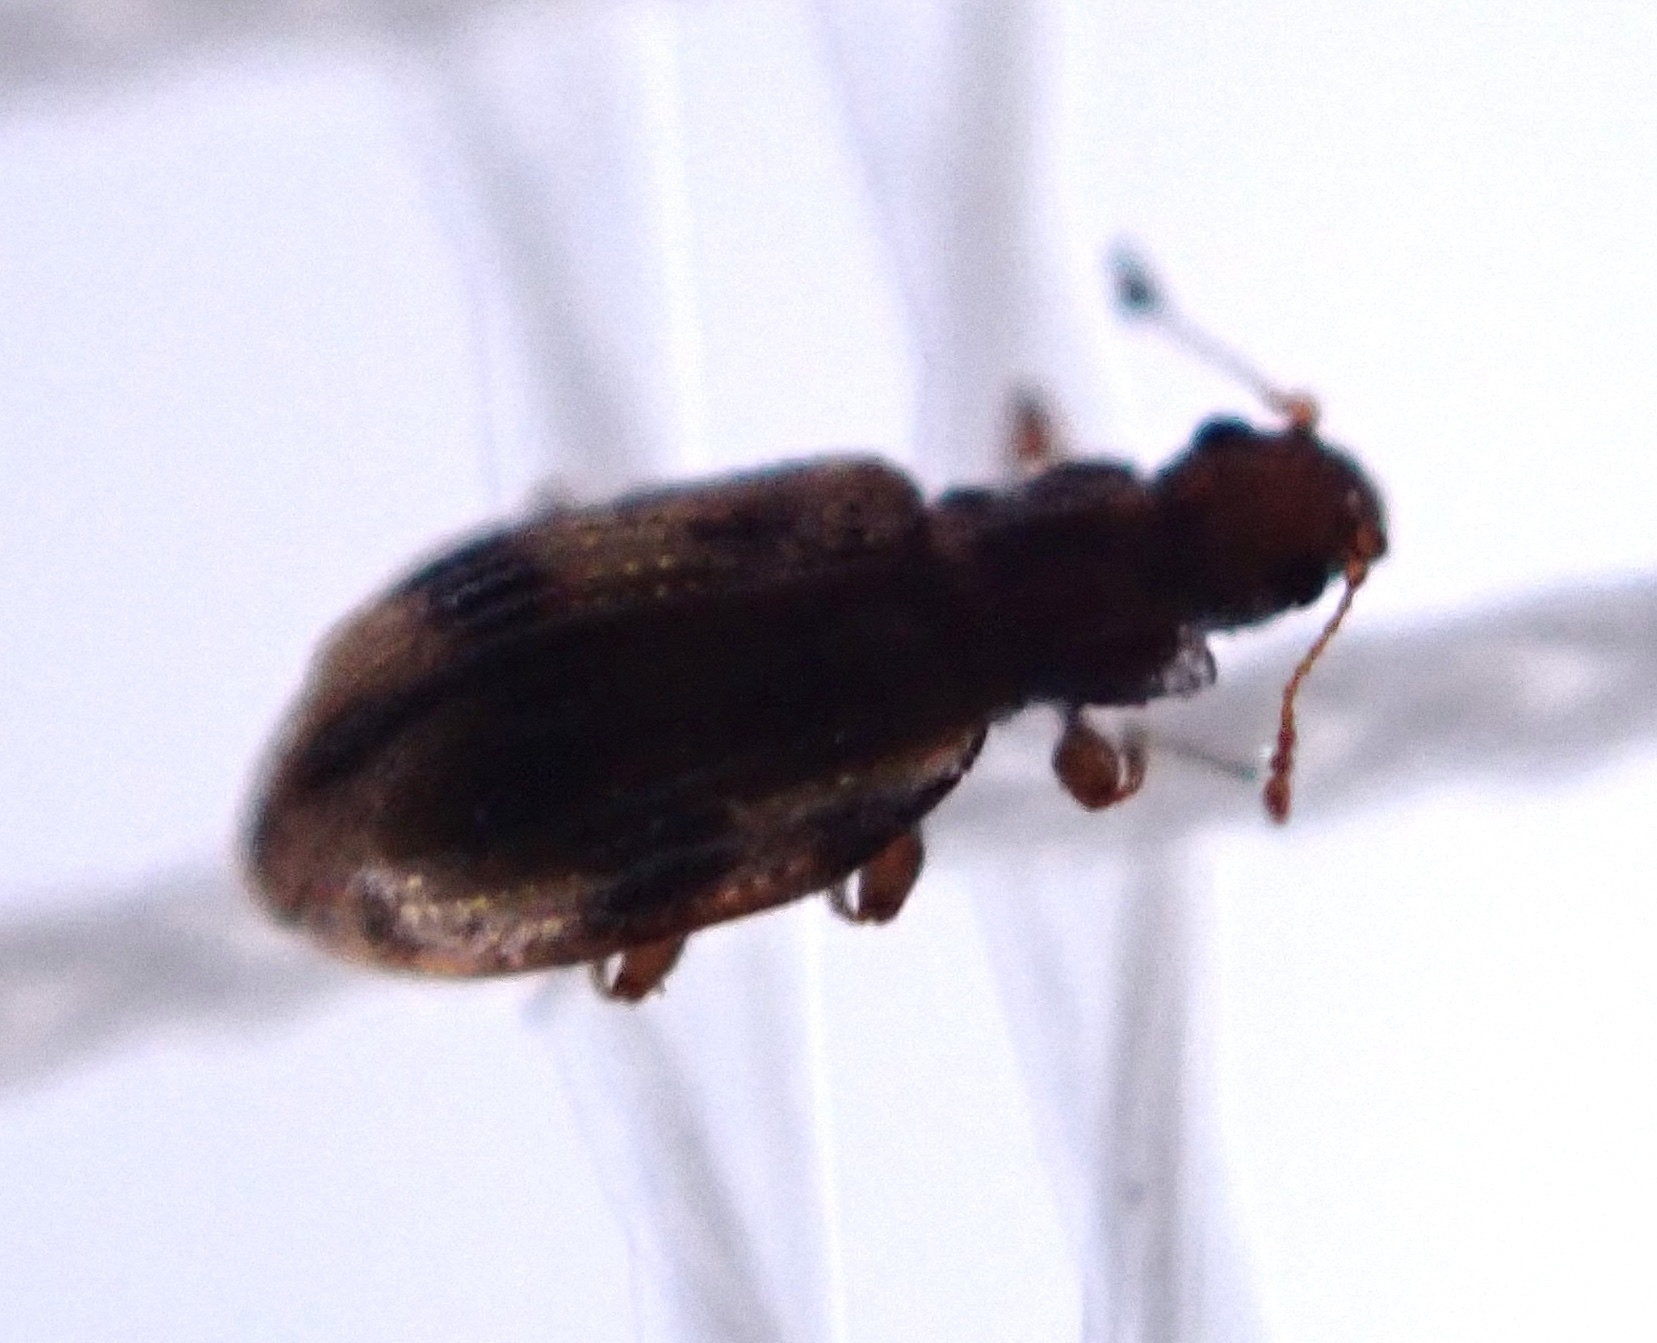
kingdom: Animalia
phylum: Arthropoda
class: Insecta
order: Coleoptera
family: Latridiidae
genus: Cartodere
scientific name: Cartodere bifasciata
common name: Plaster beetle
